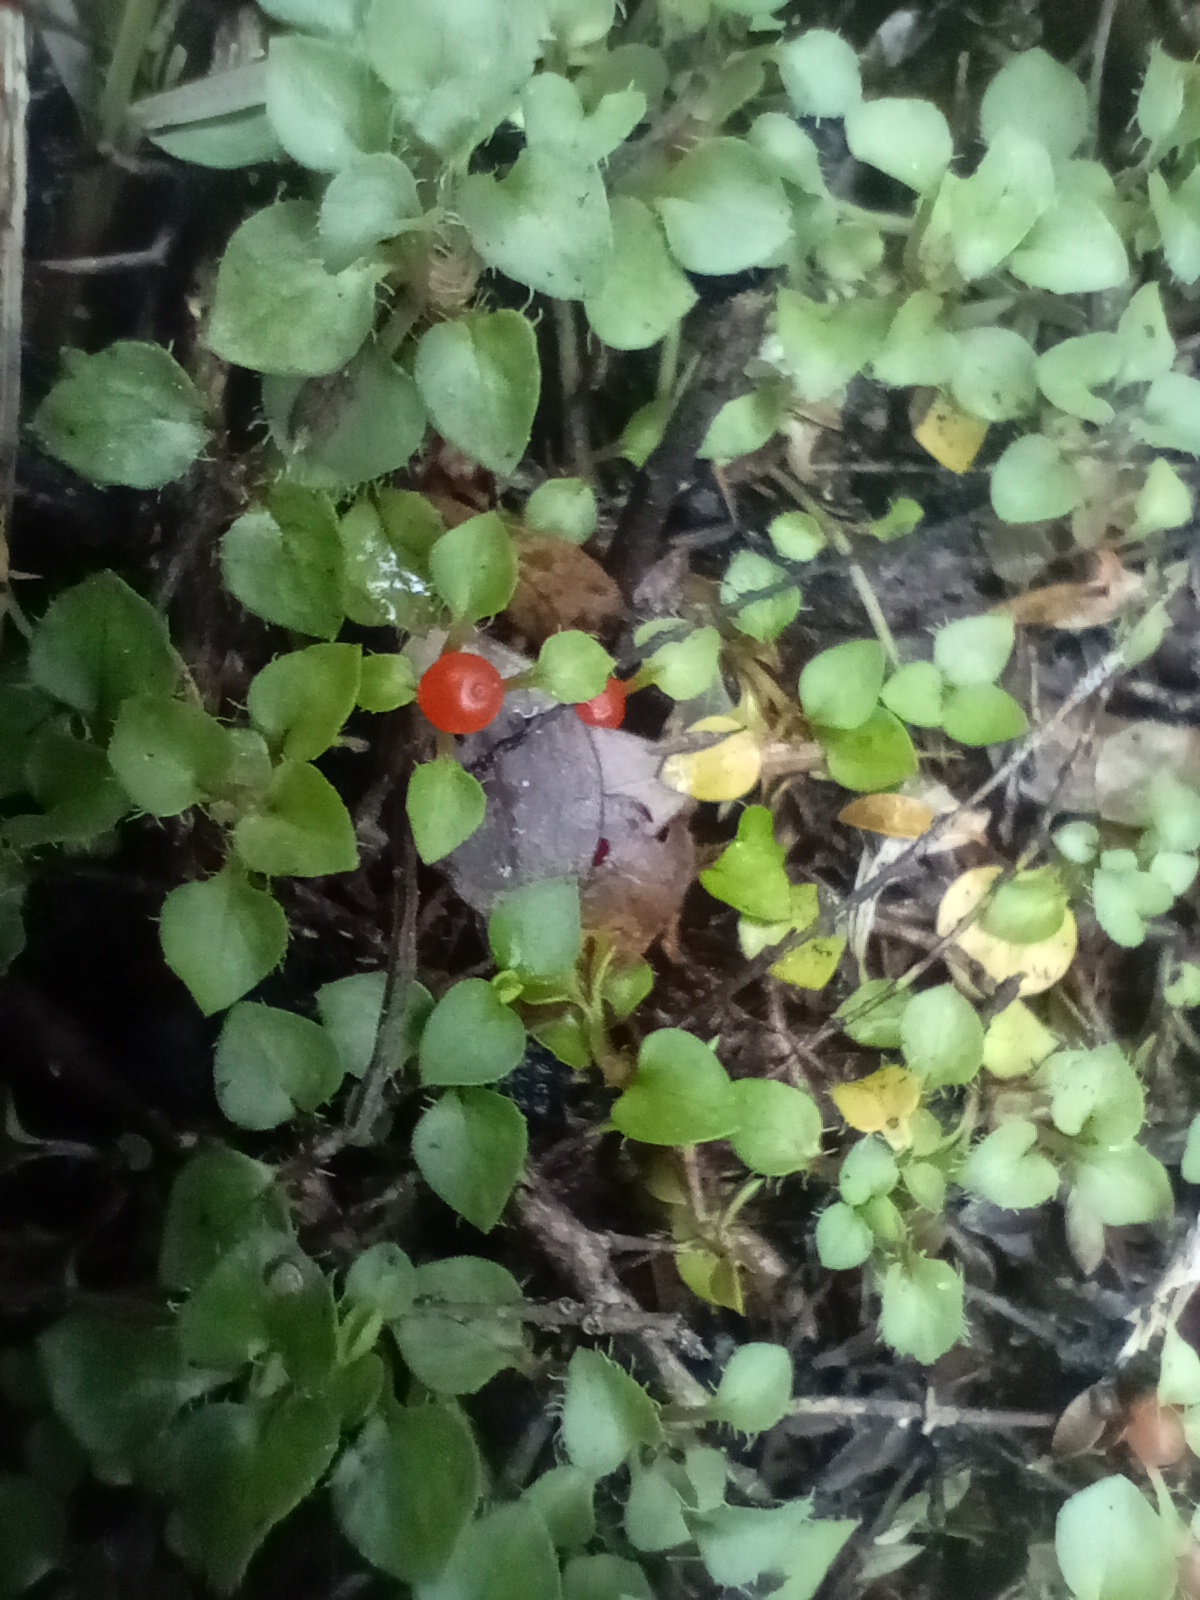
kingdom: Plantae
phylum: Tracheophyta
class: Magnoliopsida
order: Gentianales
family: Rubiaceae
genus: Nertera
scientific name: Nertera granadensis
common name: Beadplant
